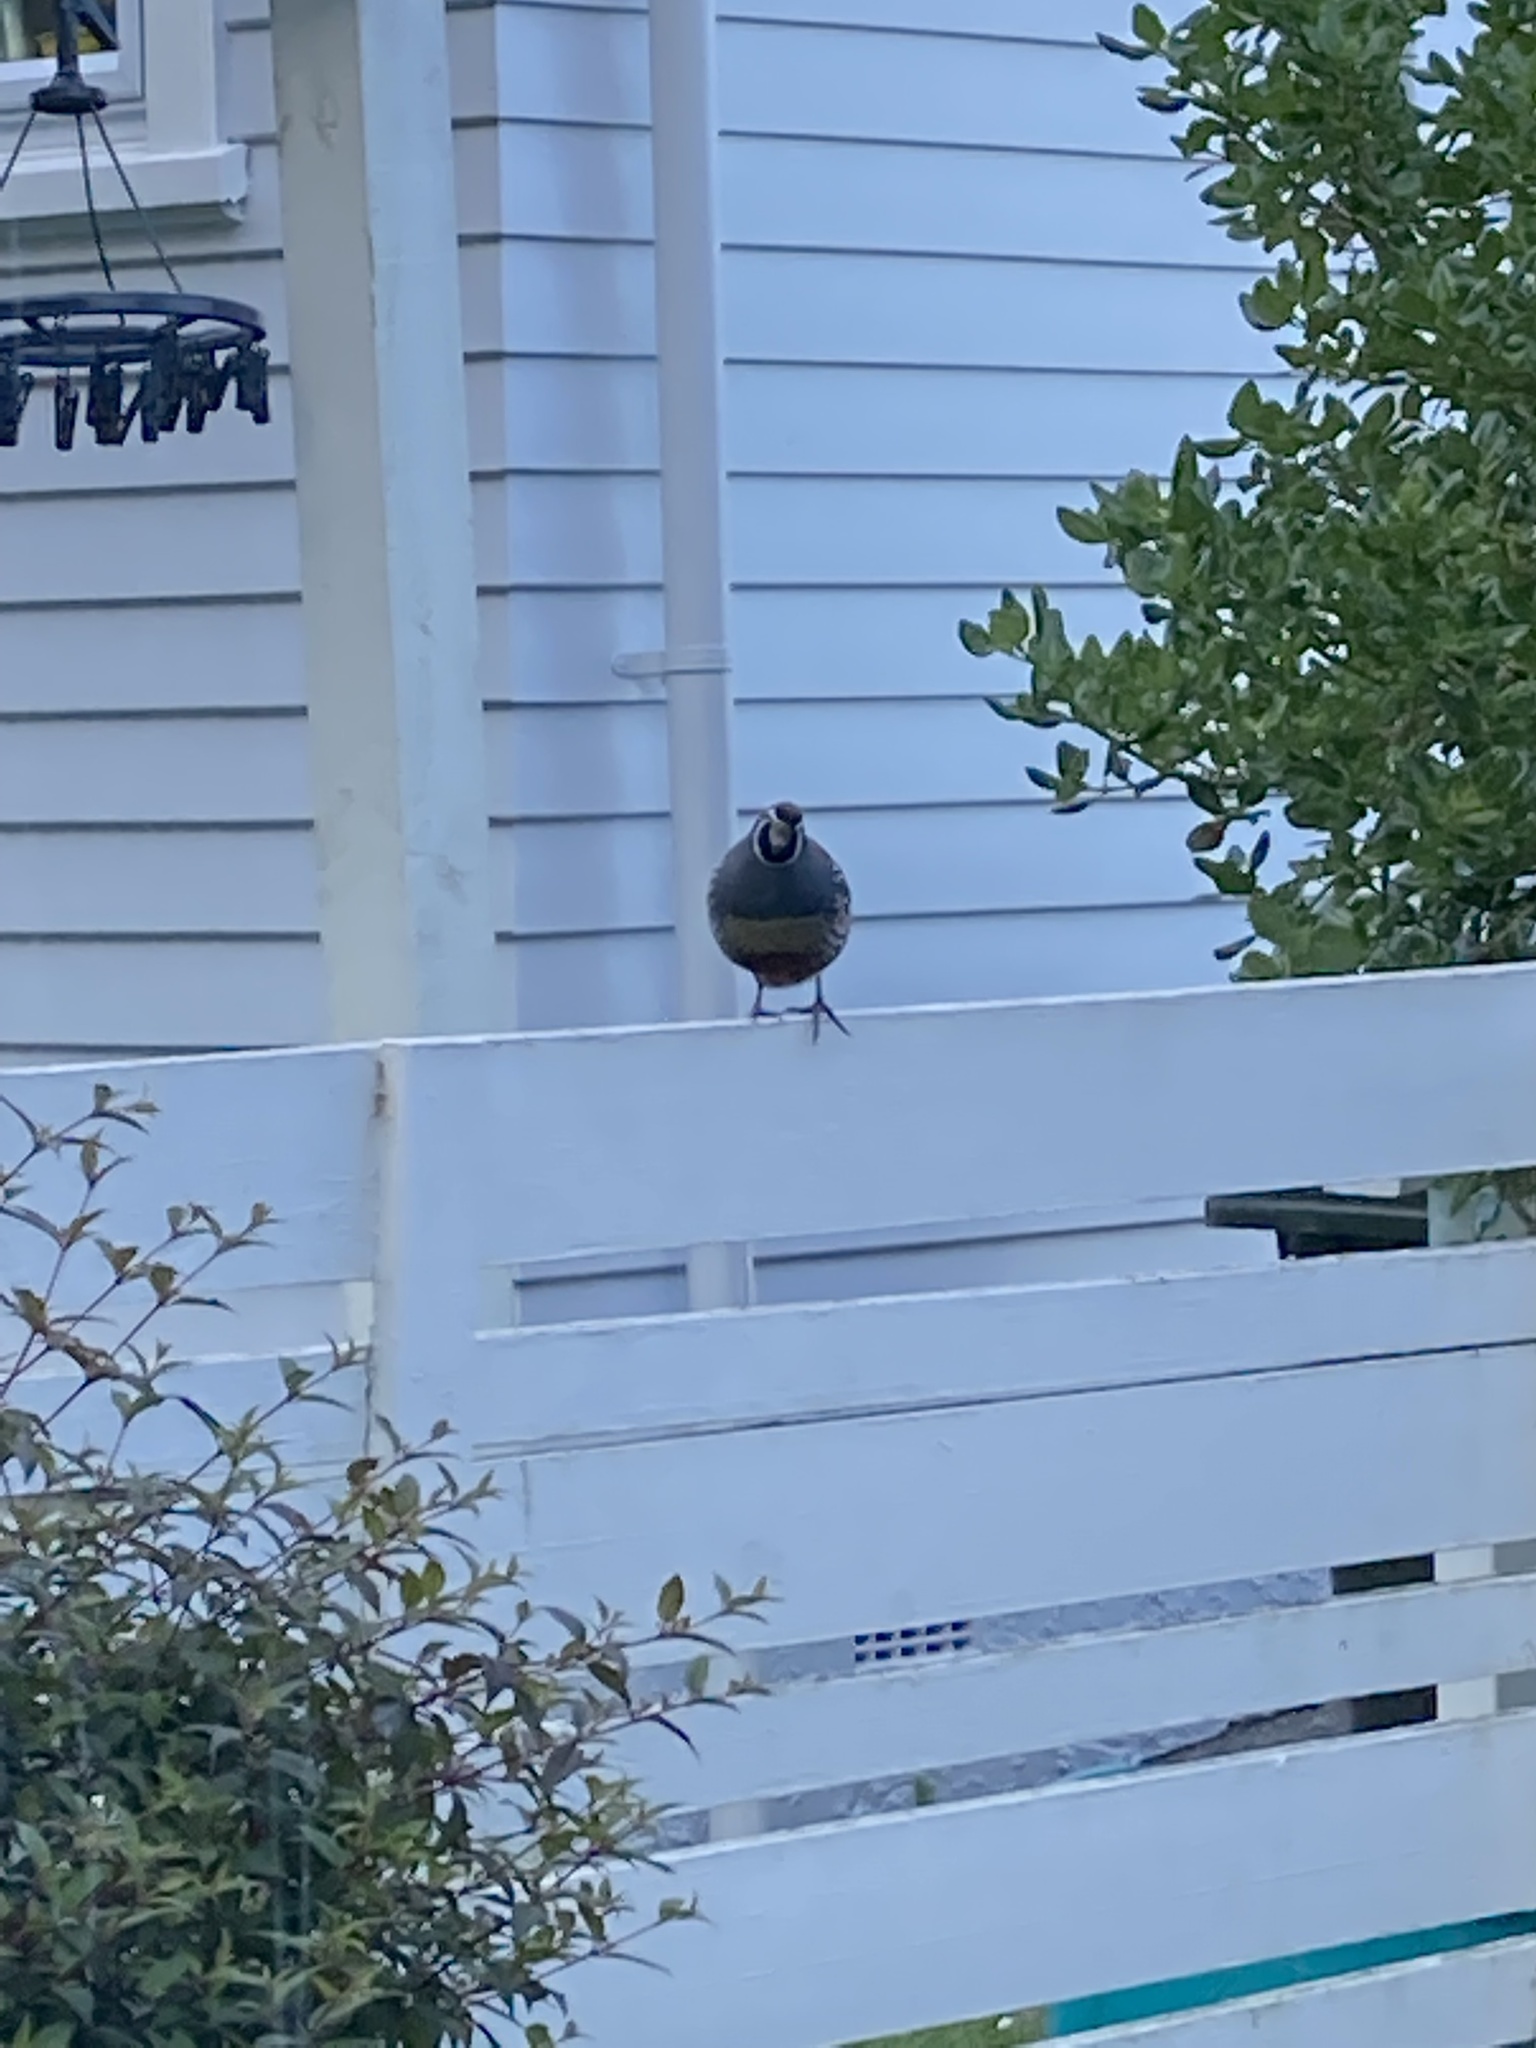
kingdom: Animalia
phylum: Chordata
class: Aves
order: Galliformes
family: Odontophoridae
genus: Callipepla
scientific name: Callipepla californica
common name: California quail
